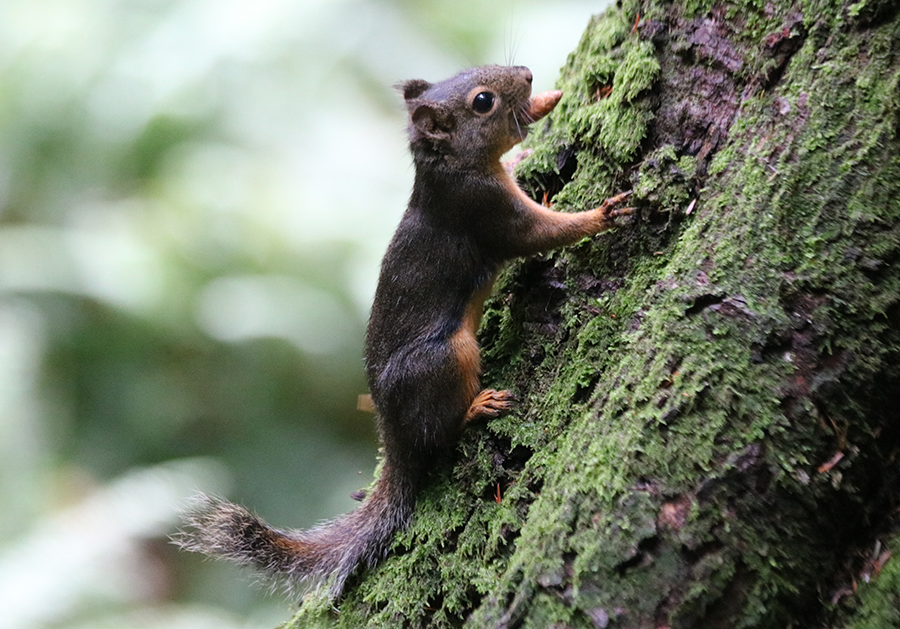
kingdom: Animalia
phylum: Chordata
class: Mammalia
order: Rodentia
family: Sciuridae
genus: Tamiasciurus
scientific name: Tamiasciurus douglasii
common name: Douglas's squirrel
